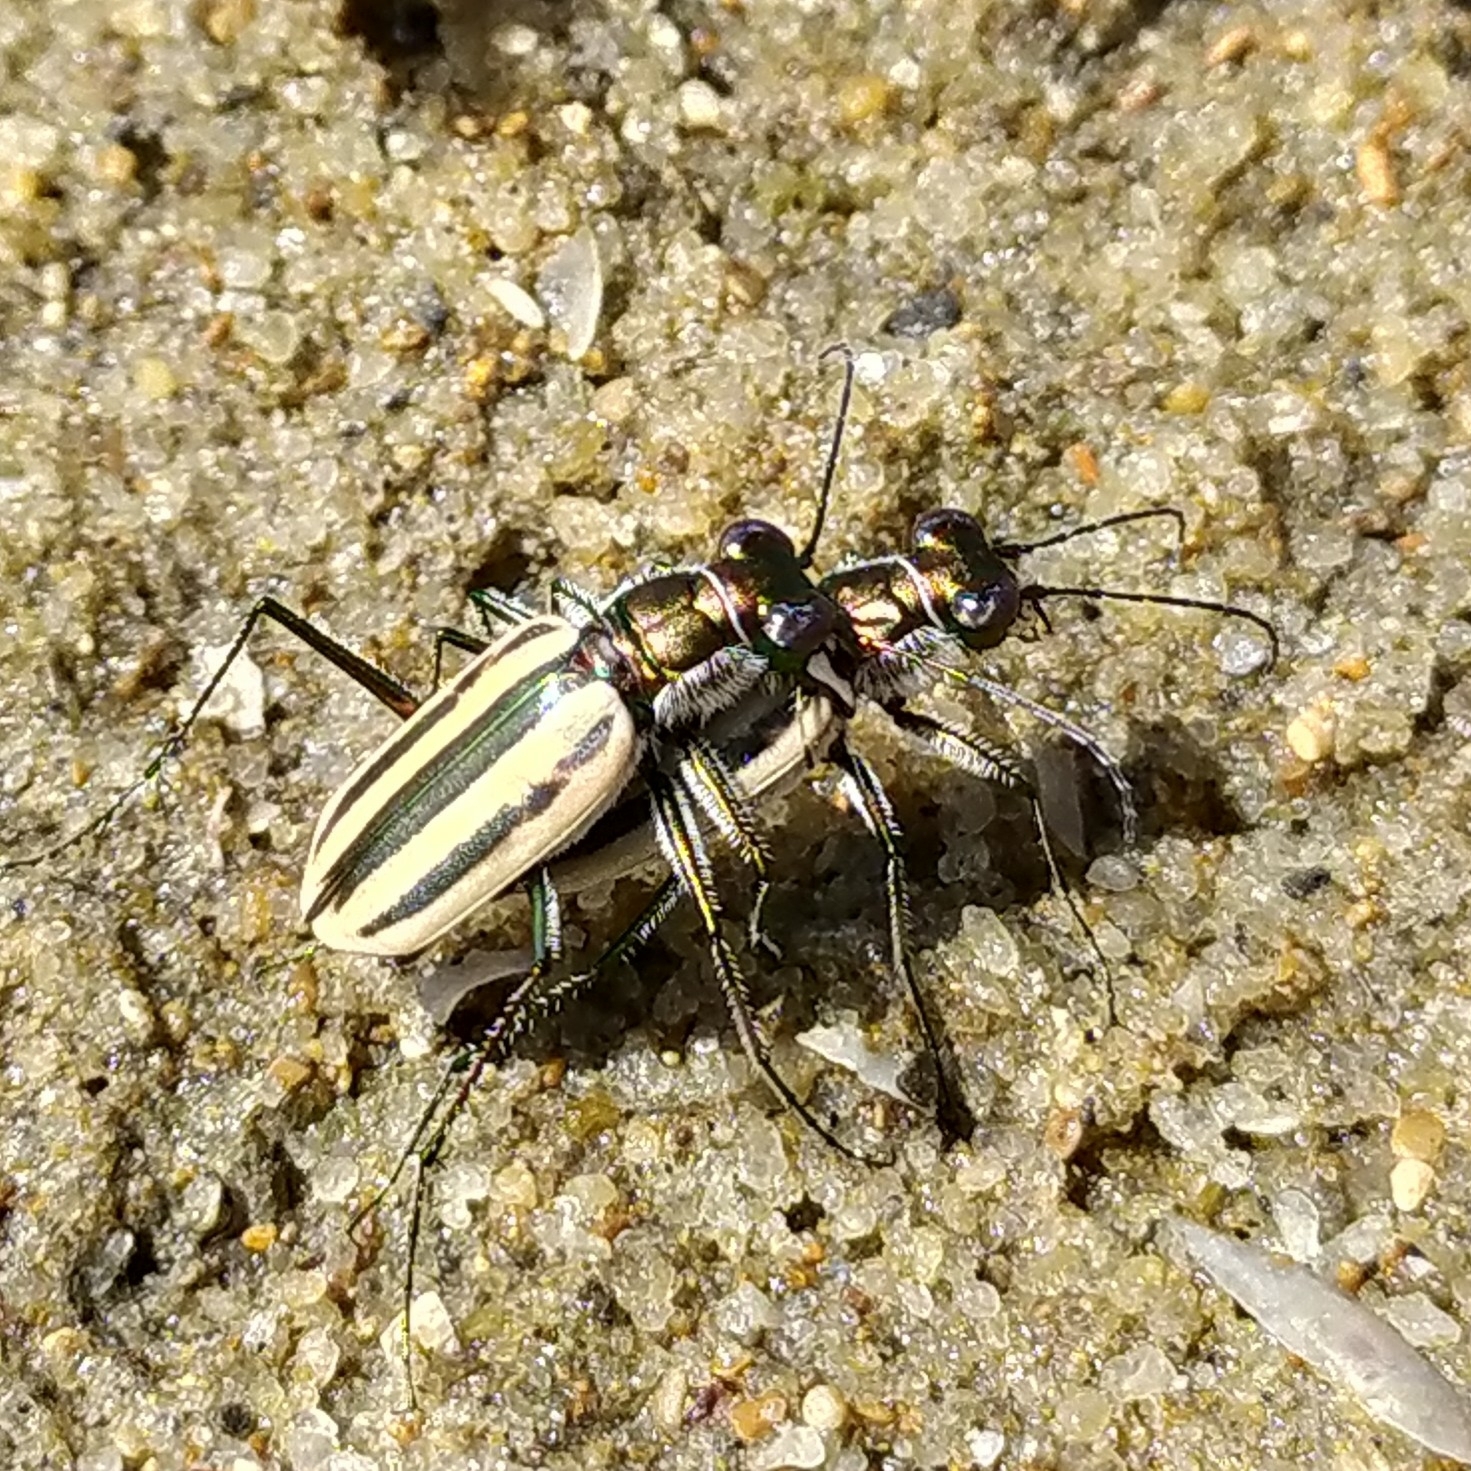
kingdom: Animalia
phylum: Arthropoda
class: Insecta
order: Coleoptera
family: Carabidae
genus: Hypaetha
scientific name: Hypaetha quadrilineata
